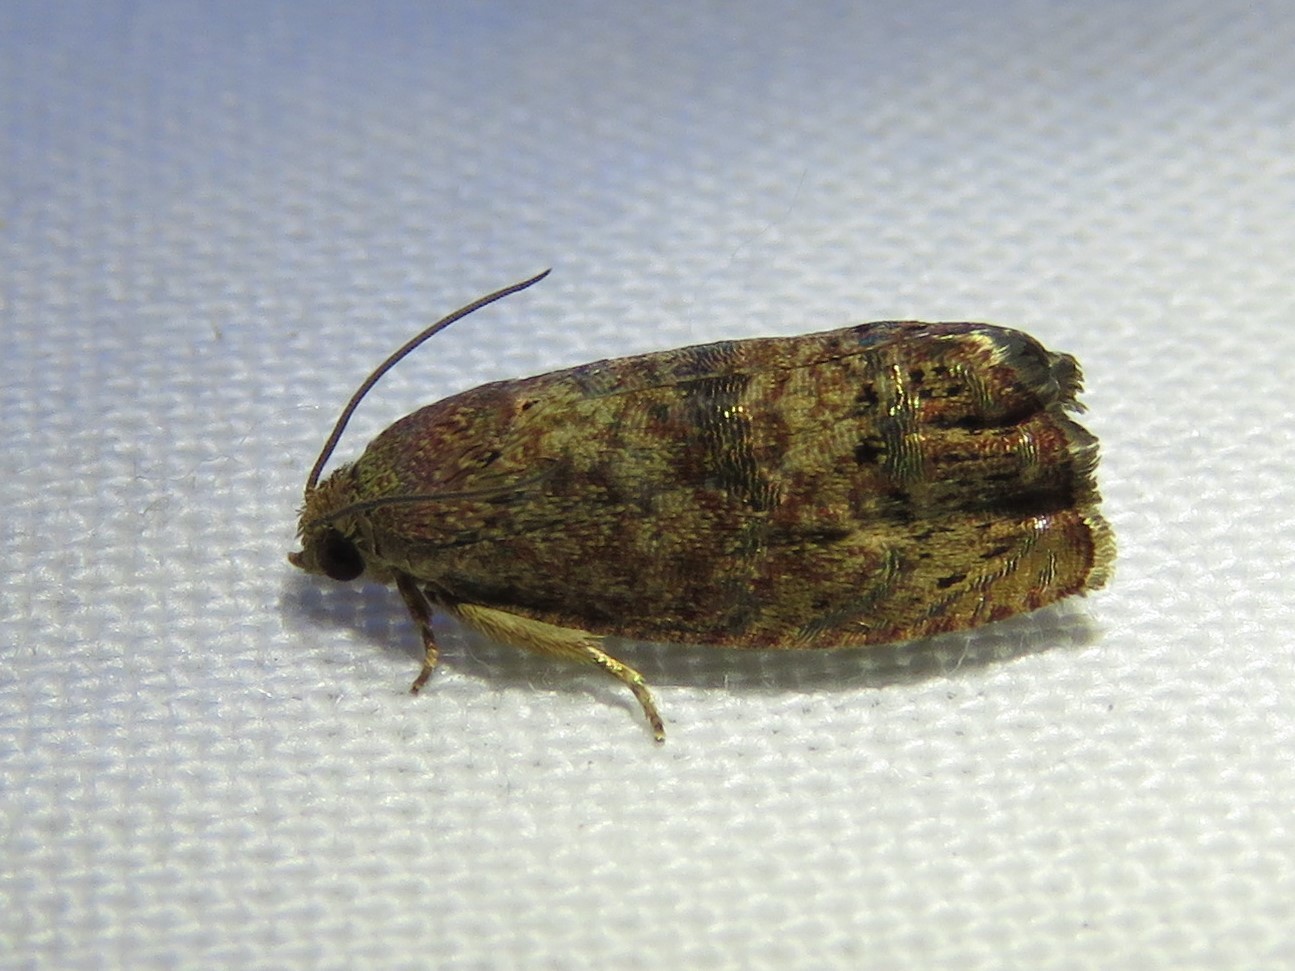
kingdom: Animalia
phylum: Arthropoda
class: Insecta
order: Lepidoptera
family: Tortricidae
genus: Cydia
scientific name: Cydia latiferreana
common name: Filbertworm moth
